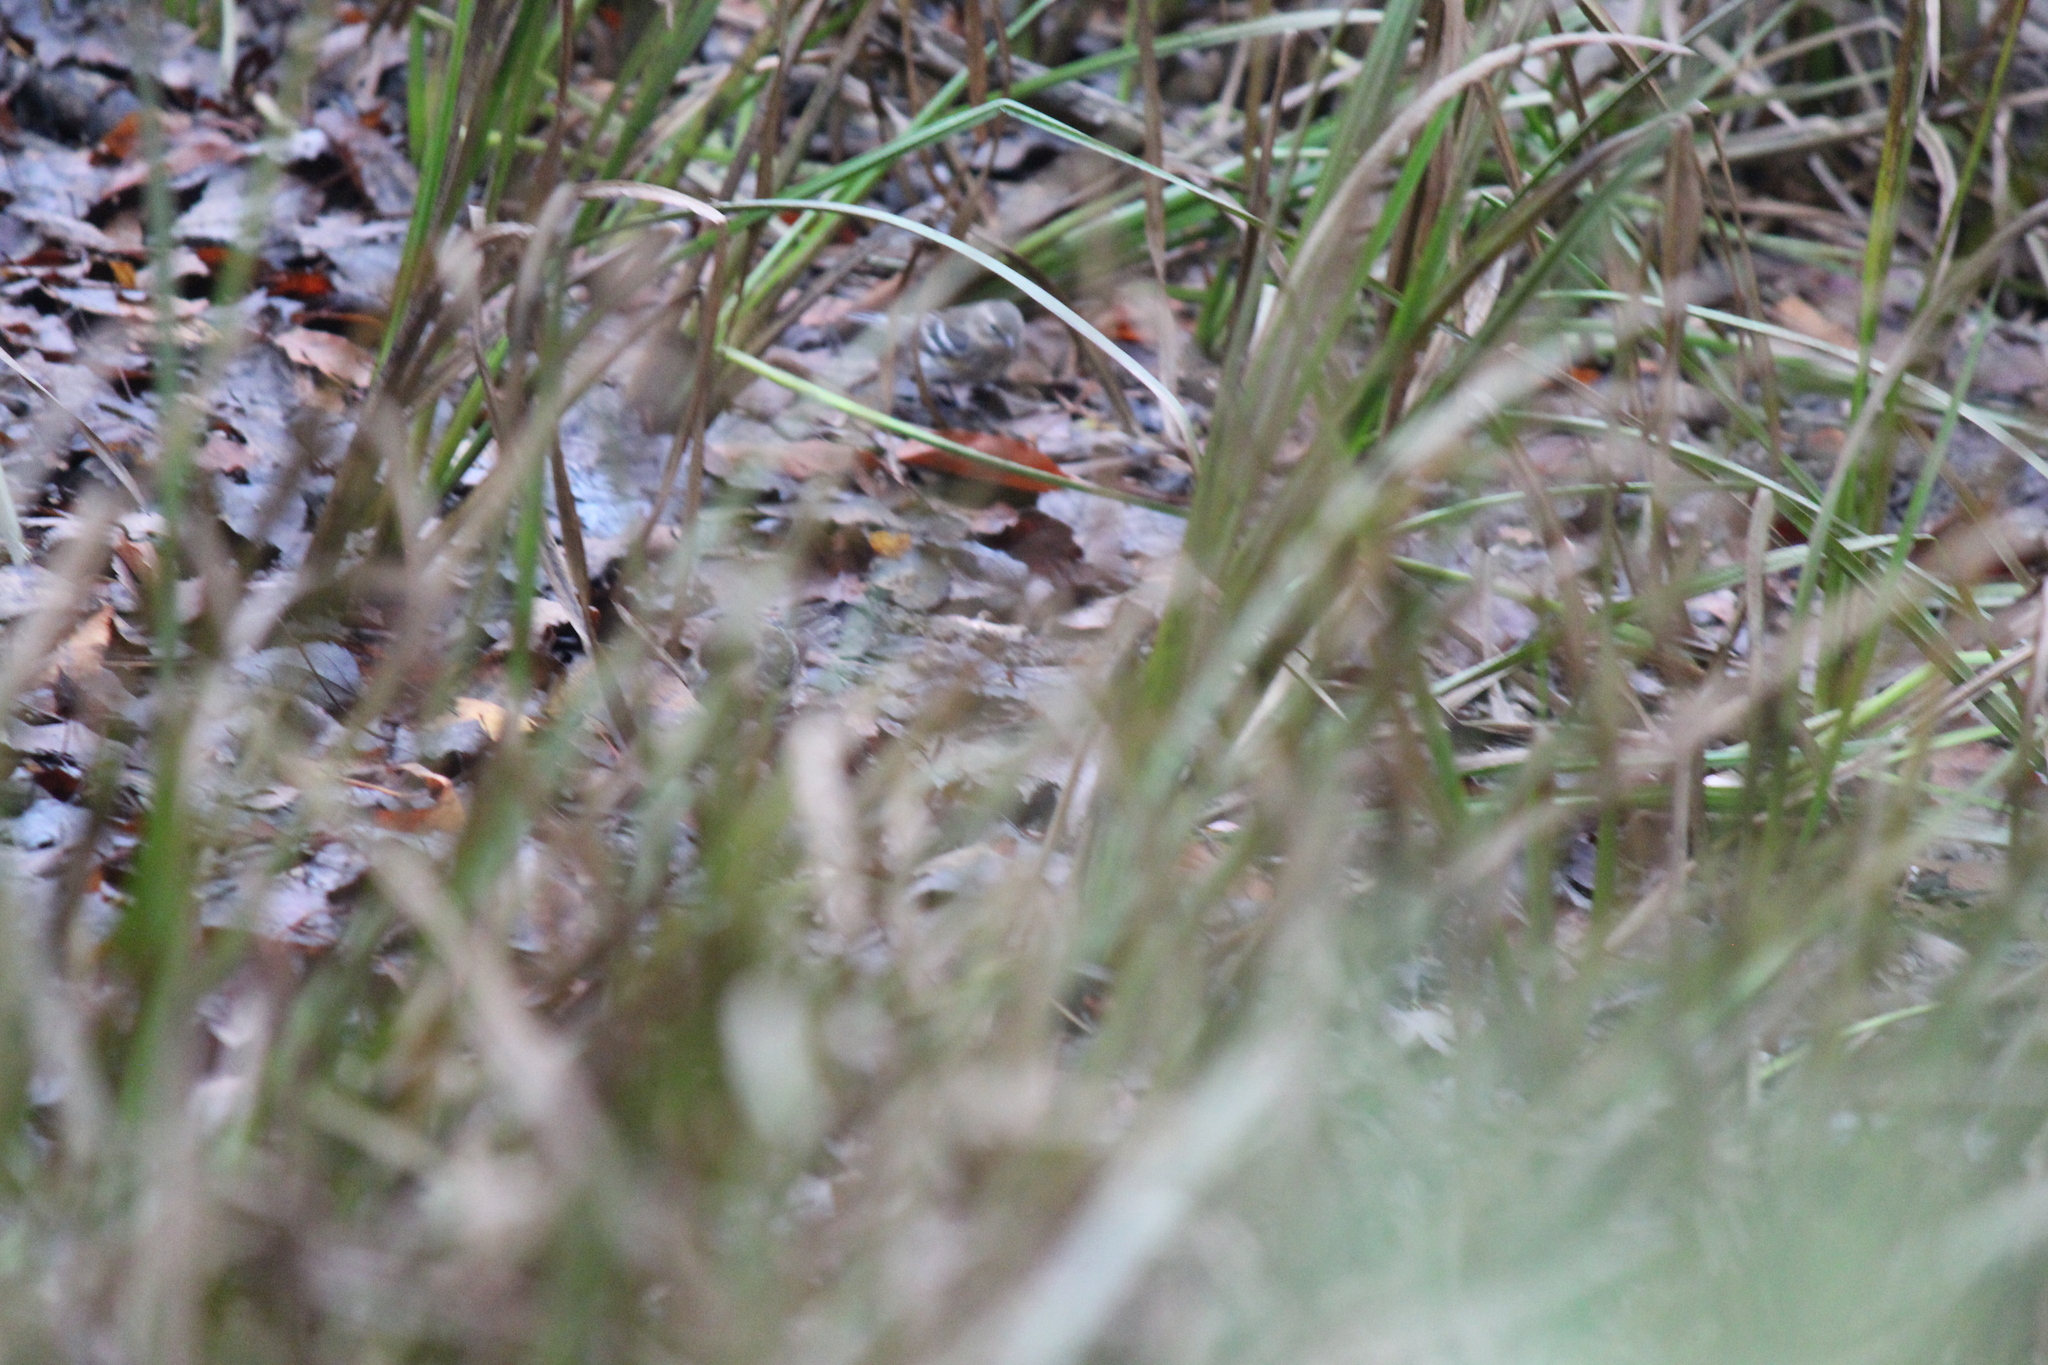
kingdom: Animalia
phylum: Chordata
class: Aves
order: Passeriformes
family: Parulidae
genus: Setophaga
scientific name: Setophaga coronata
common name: Myrtle warbler
